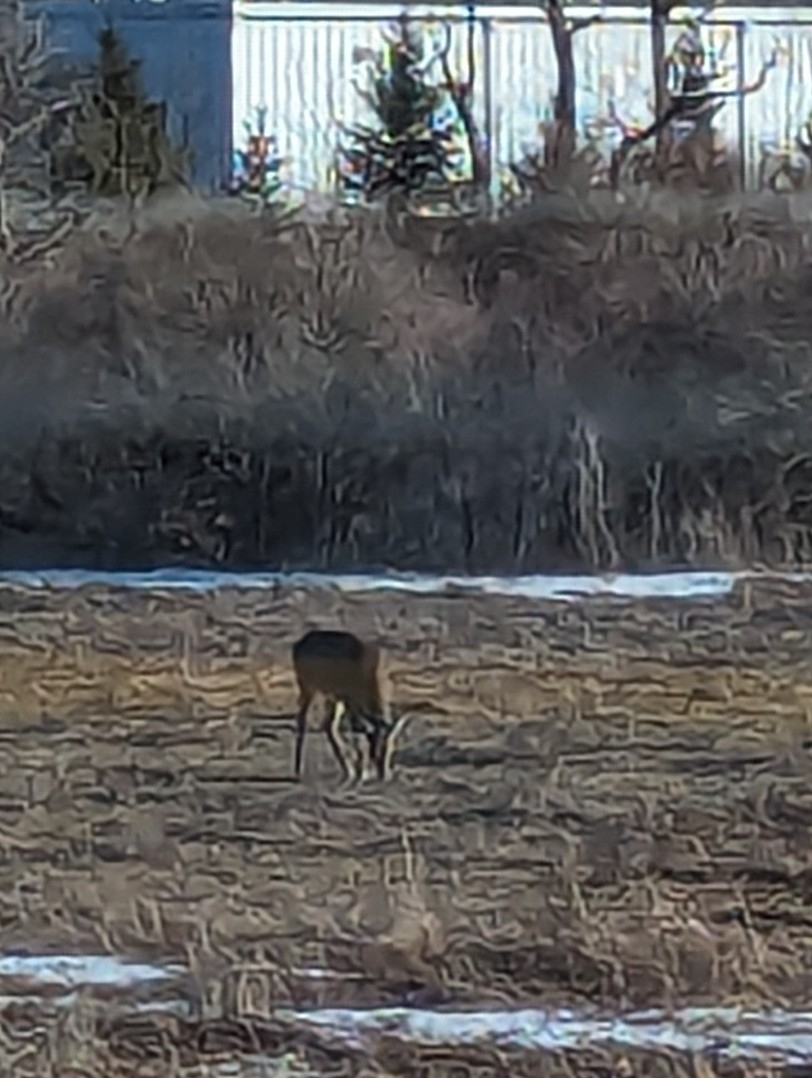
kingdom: Animalia
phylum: Chordata
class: Mammalia
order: Artiodactyla
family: Cervidae
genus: Odocoileus
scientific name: Odocoileus virginianus
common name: White-tailed deer
